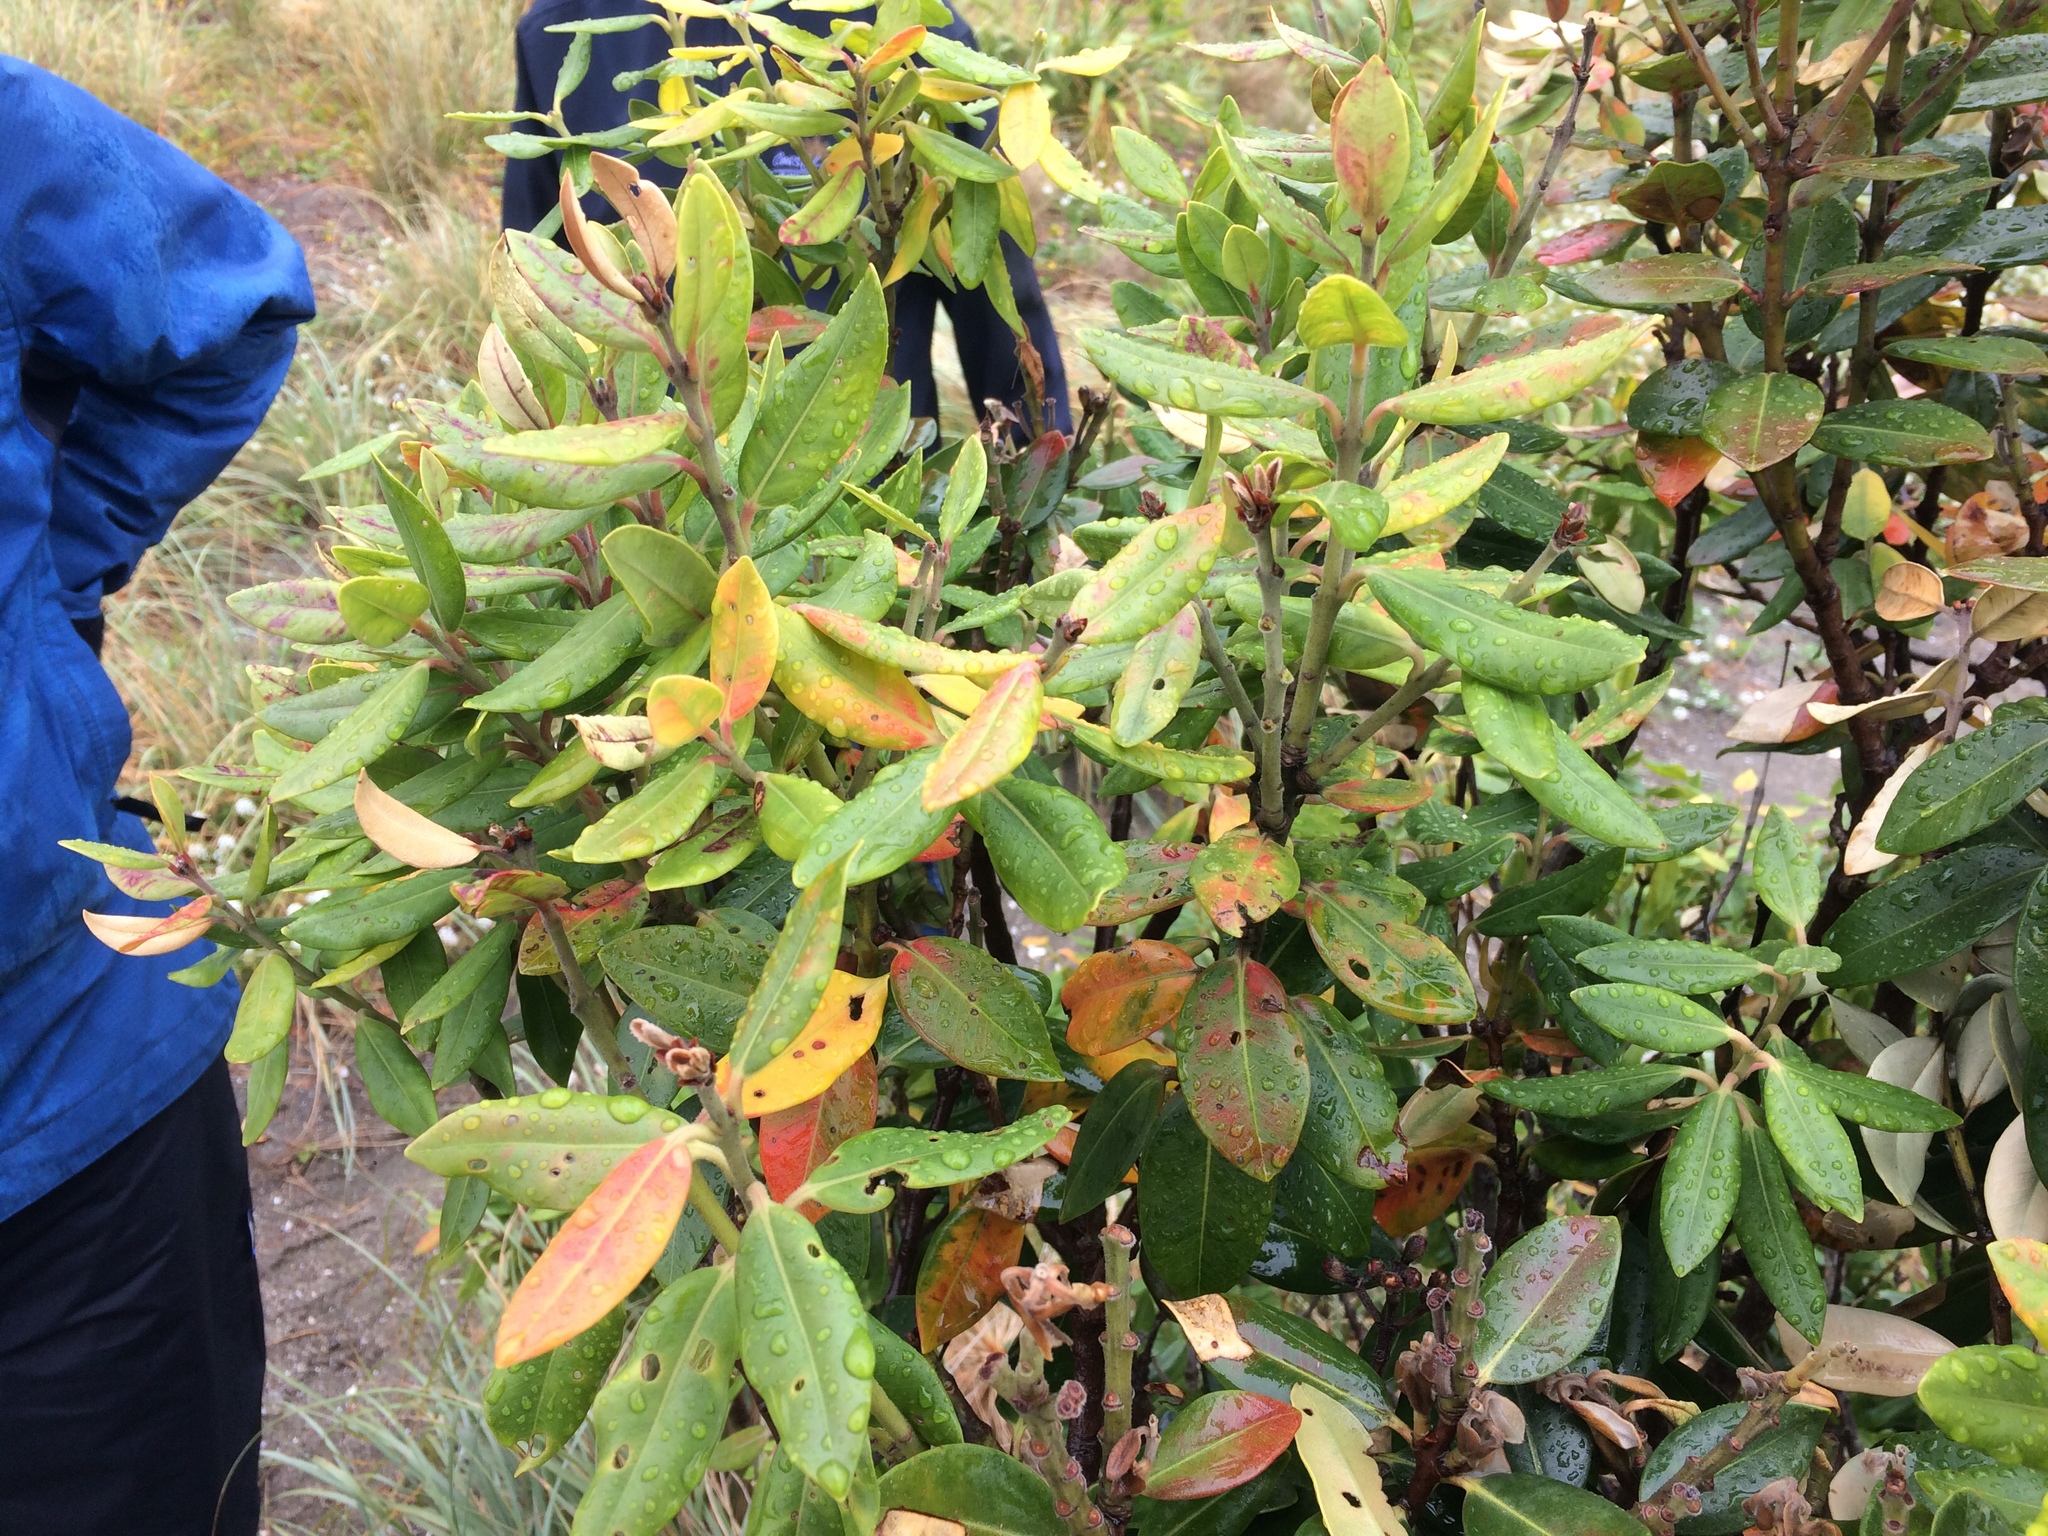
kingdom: Plantae
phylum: Tracheophyta
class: Magnoliopsida
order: Myrtales
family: Myrtaceae
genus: Metrosideros
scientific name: Metrosideros excelsa
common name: New zealand christmastree
